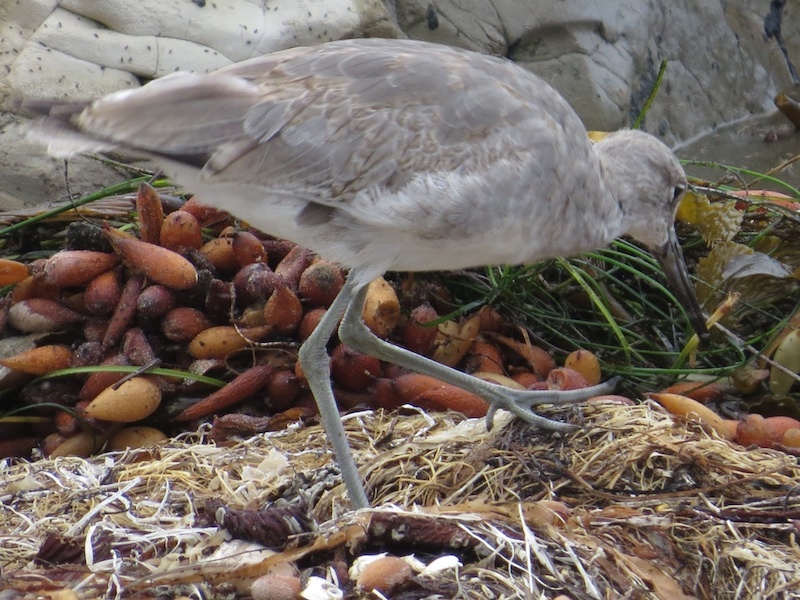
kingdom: Animalia
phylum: Chordata
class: Aves
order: Charadriiformes
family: Scolopacidae
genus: Tringa
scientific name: Tringa semipalmata
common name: Willet
